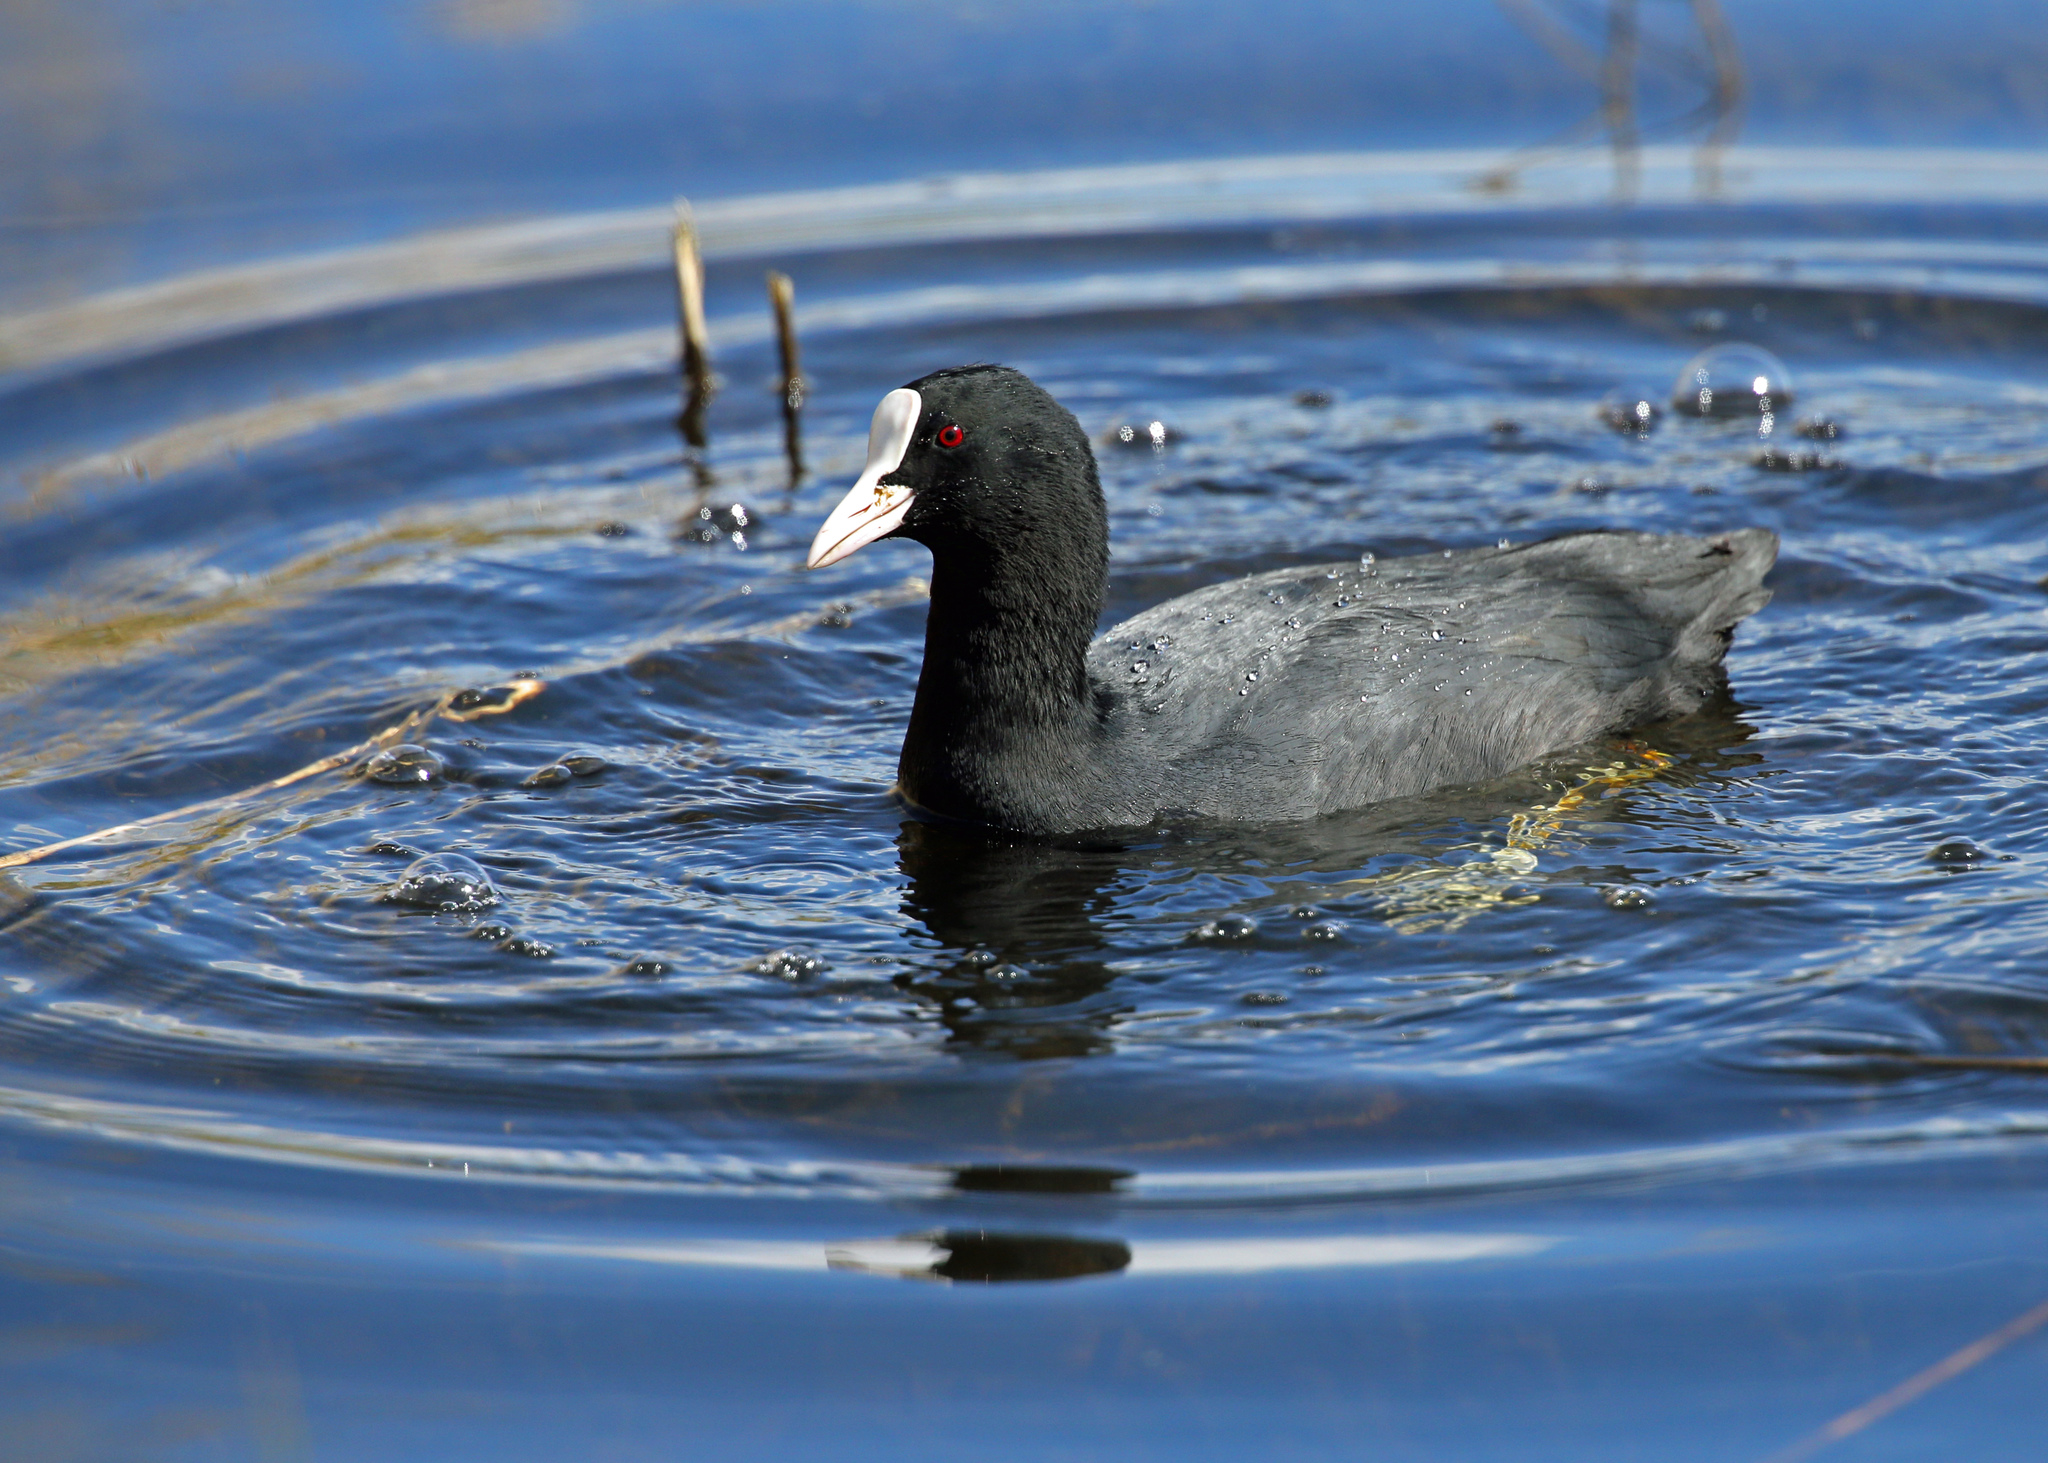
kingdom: Animalia
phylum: Chordata
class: Aves
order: Gruiformes
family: Rallidae
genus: Fulica
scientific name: Fulica atra
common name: Eurasian coot
